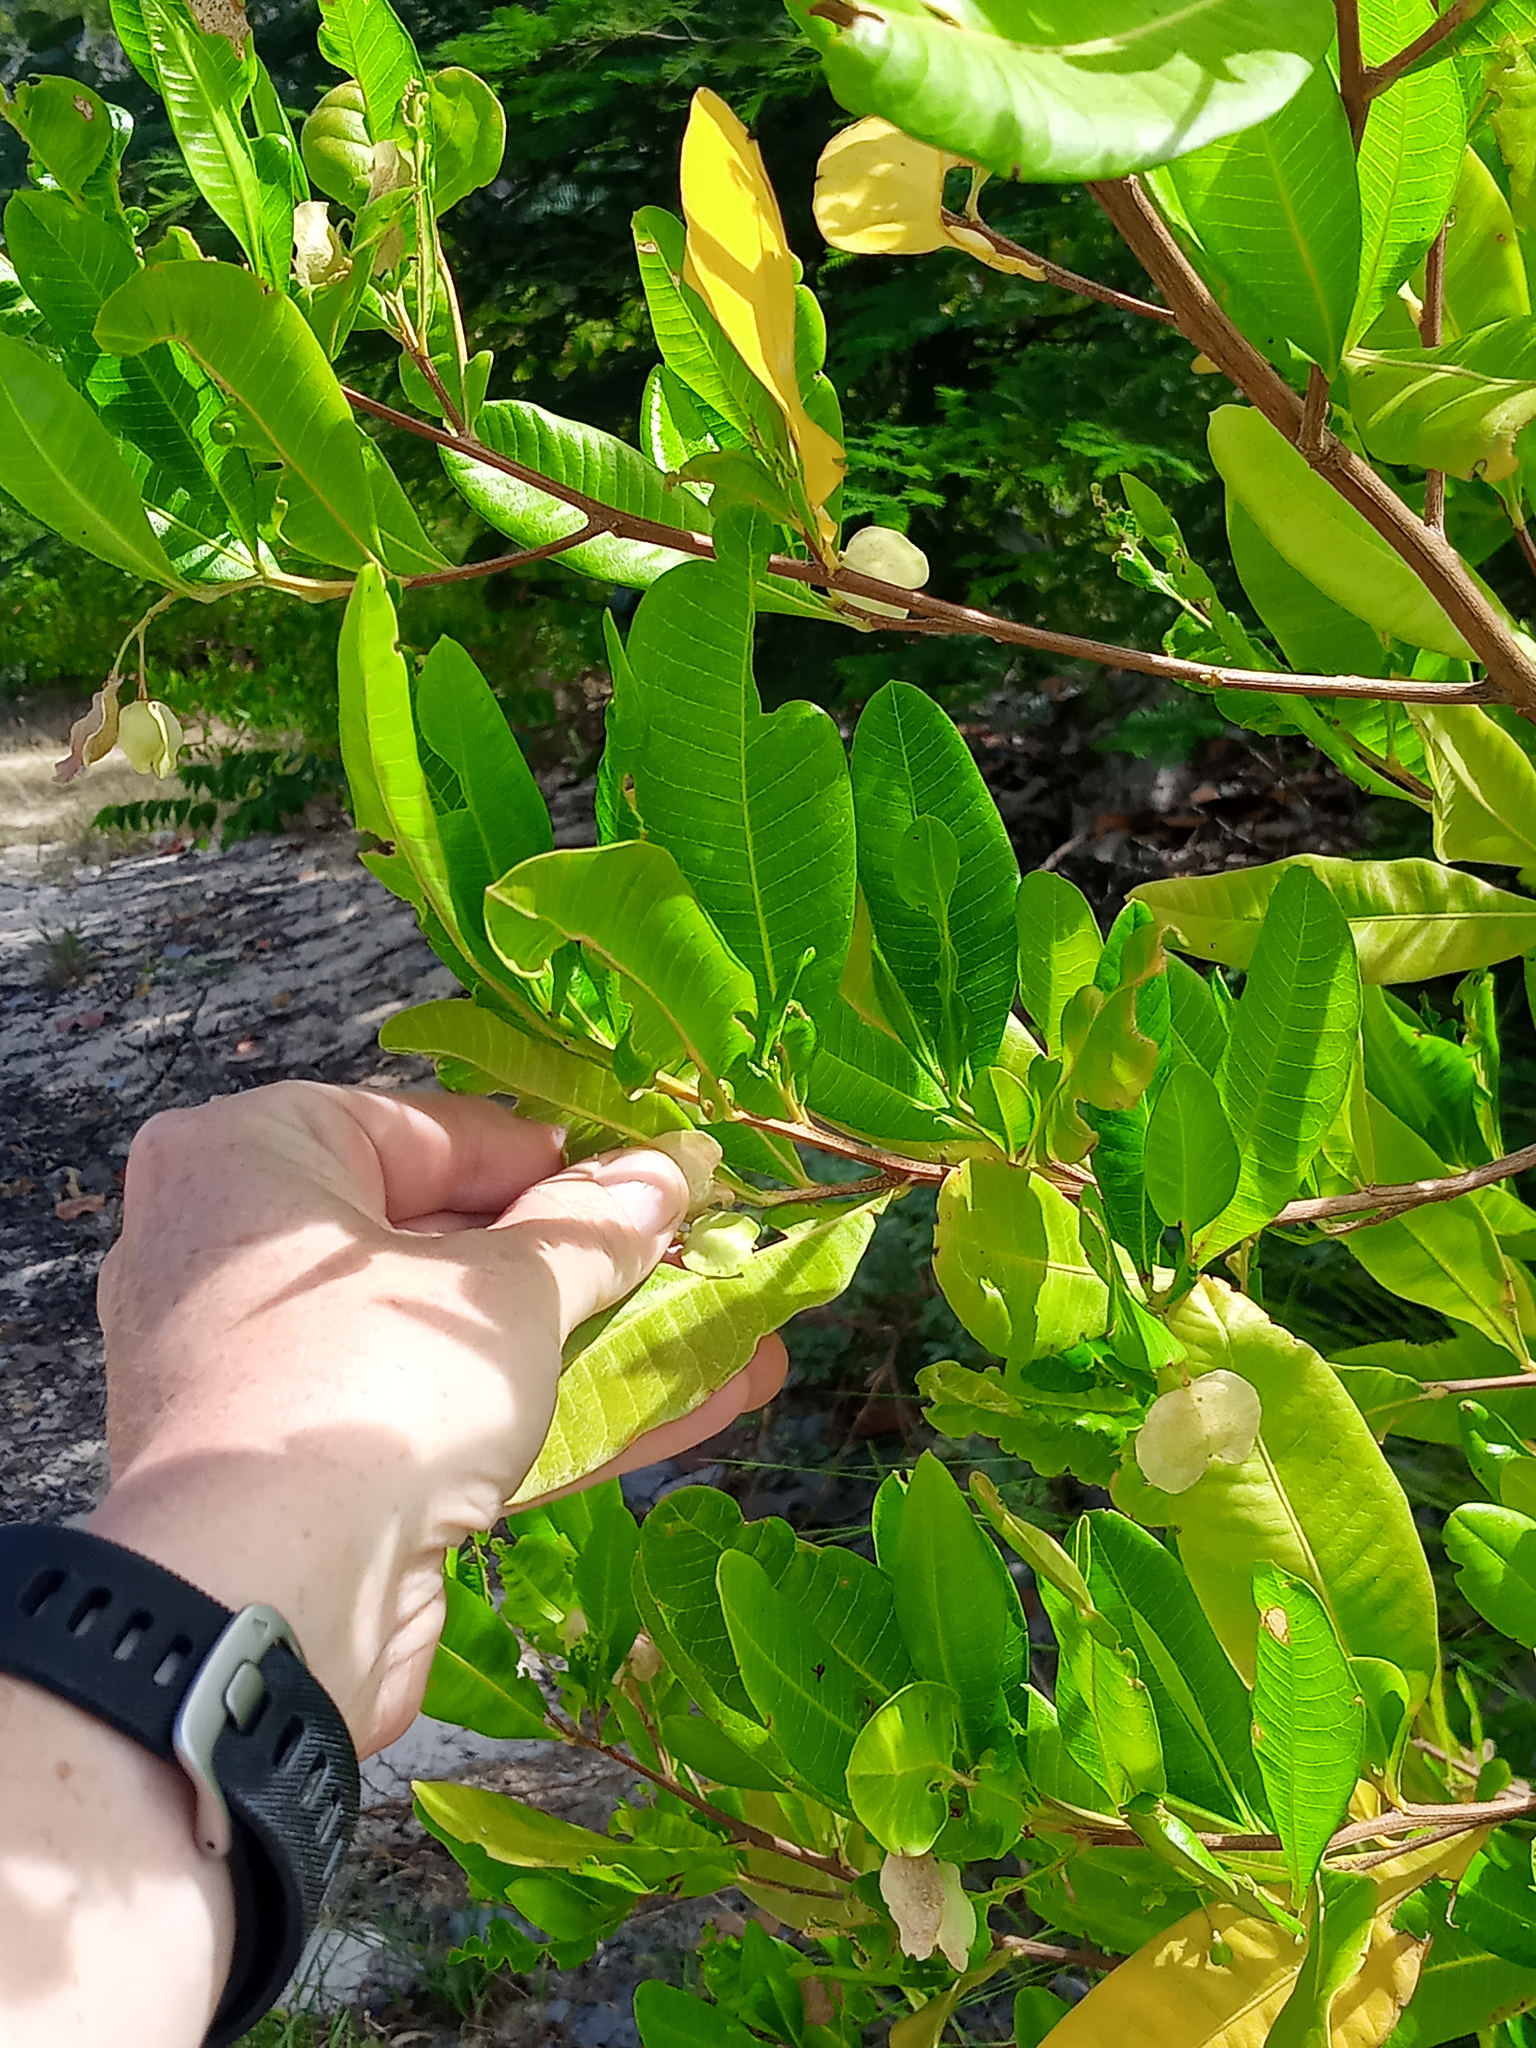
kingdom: Plantae
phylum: Tracheophyta
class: Magnoliopsida
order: Sapindales
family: Sapindaceae
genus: Dodonaea
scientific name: Dodonaea viscosa
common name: Hopbush
